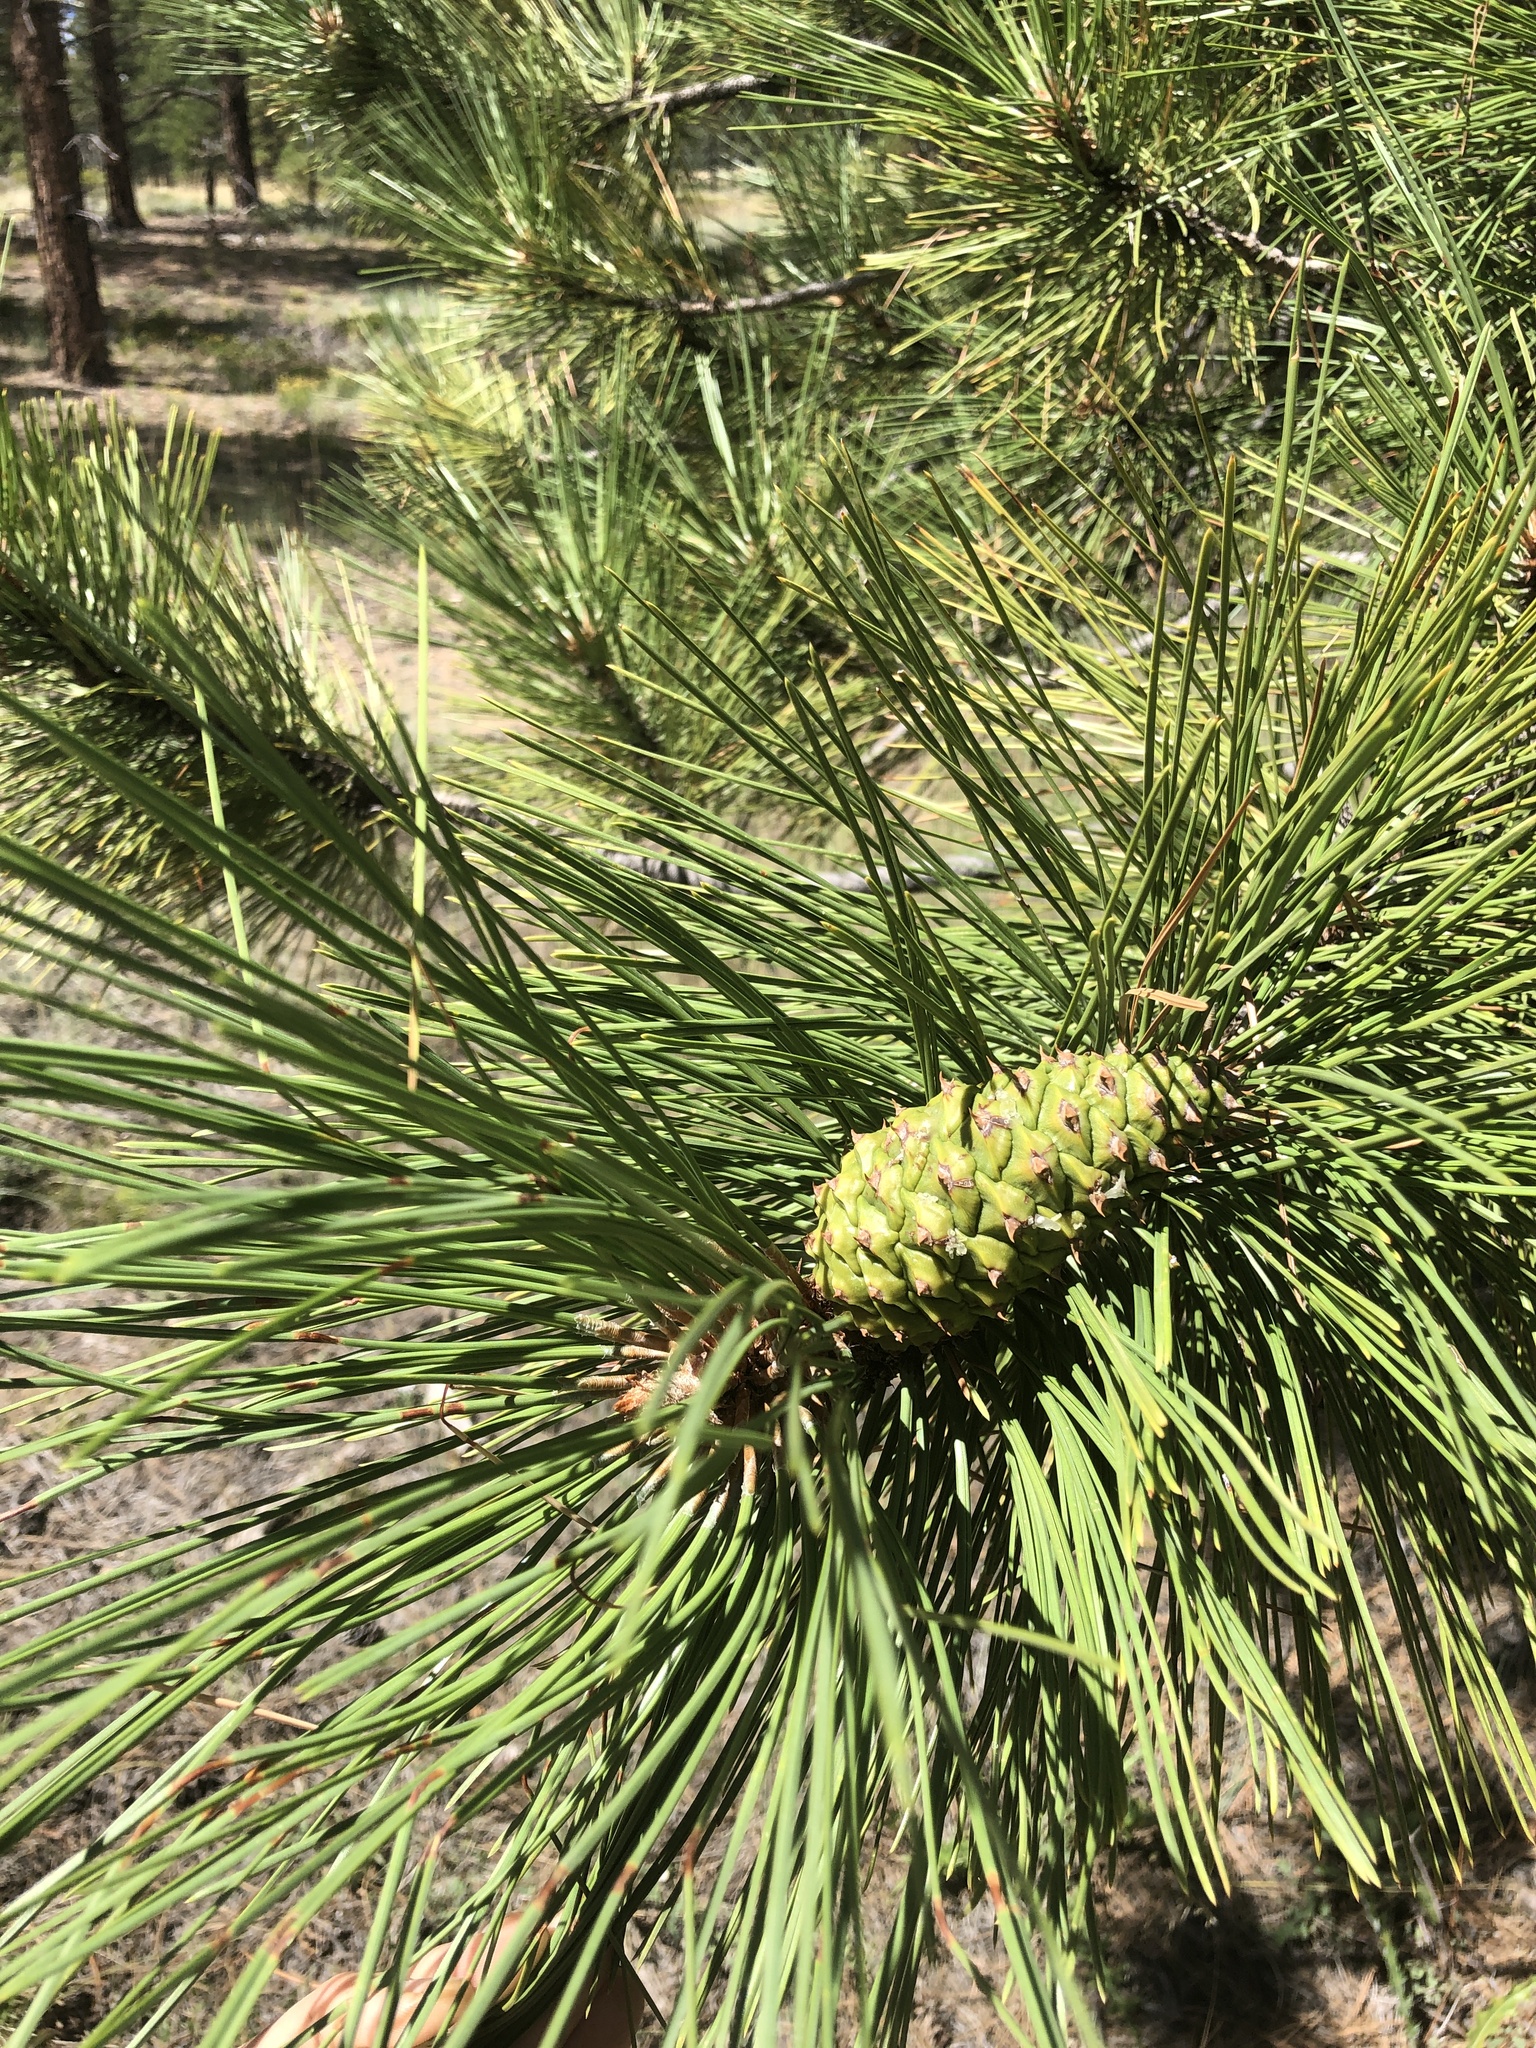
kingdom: Plantae
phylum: Tracheophyta
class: Pinopsida
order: Pinales
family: Pinaceae
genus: Pinus
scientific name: Pinus ponderosa
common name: Western yellow-pine
